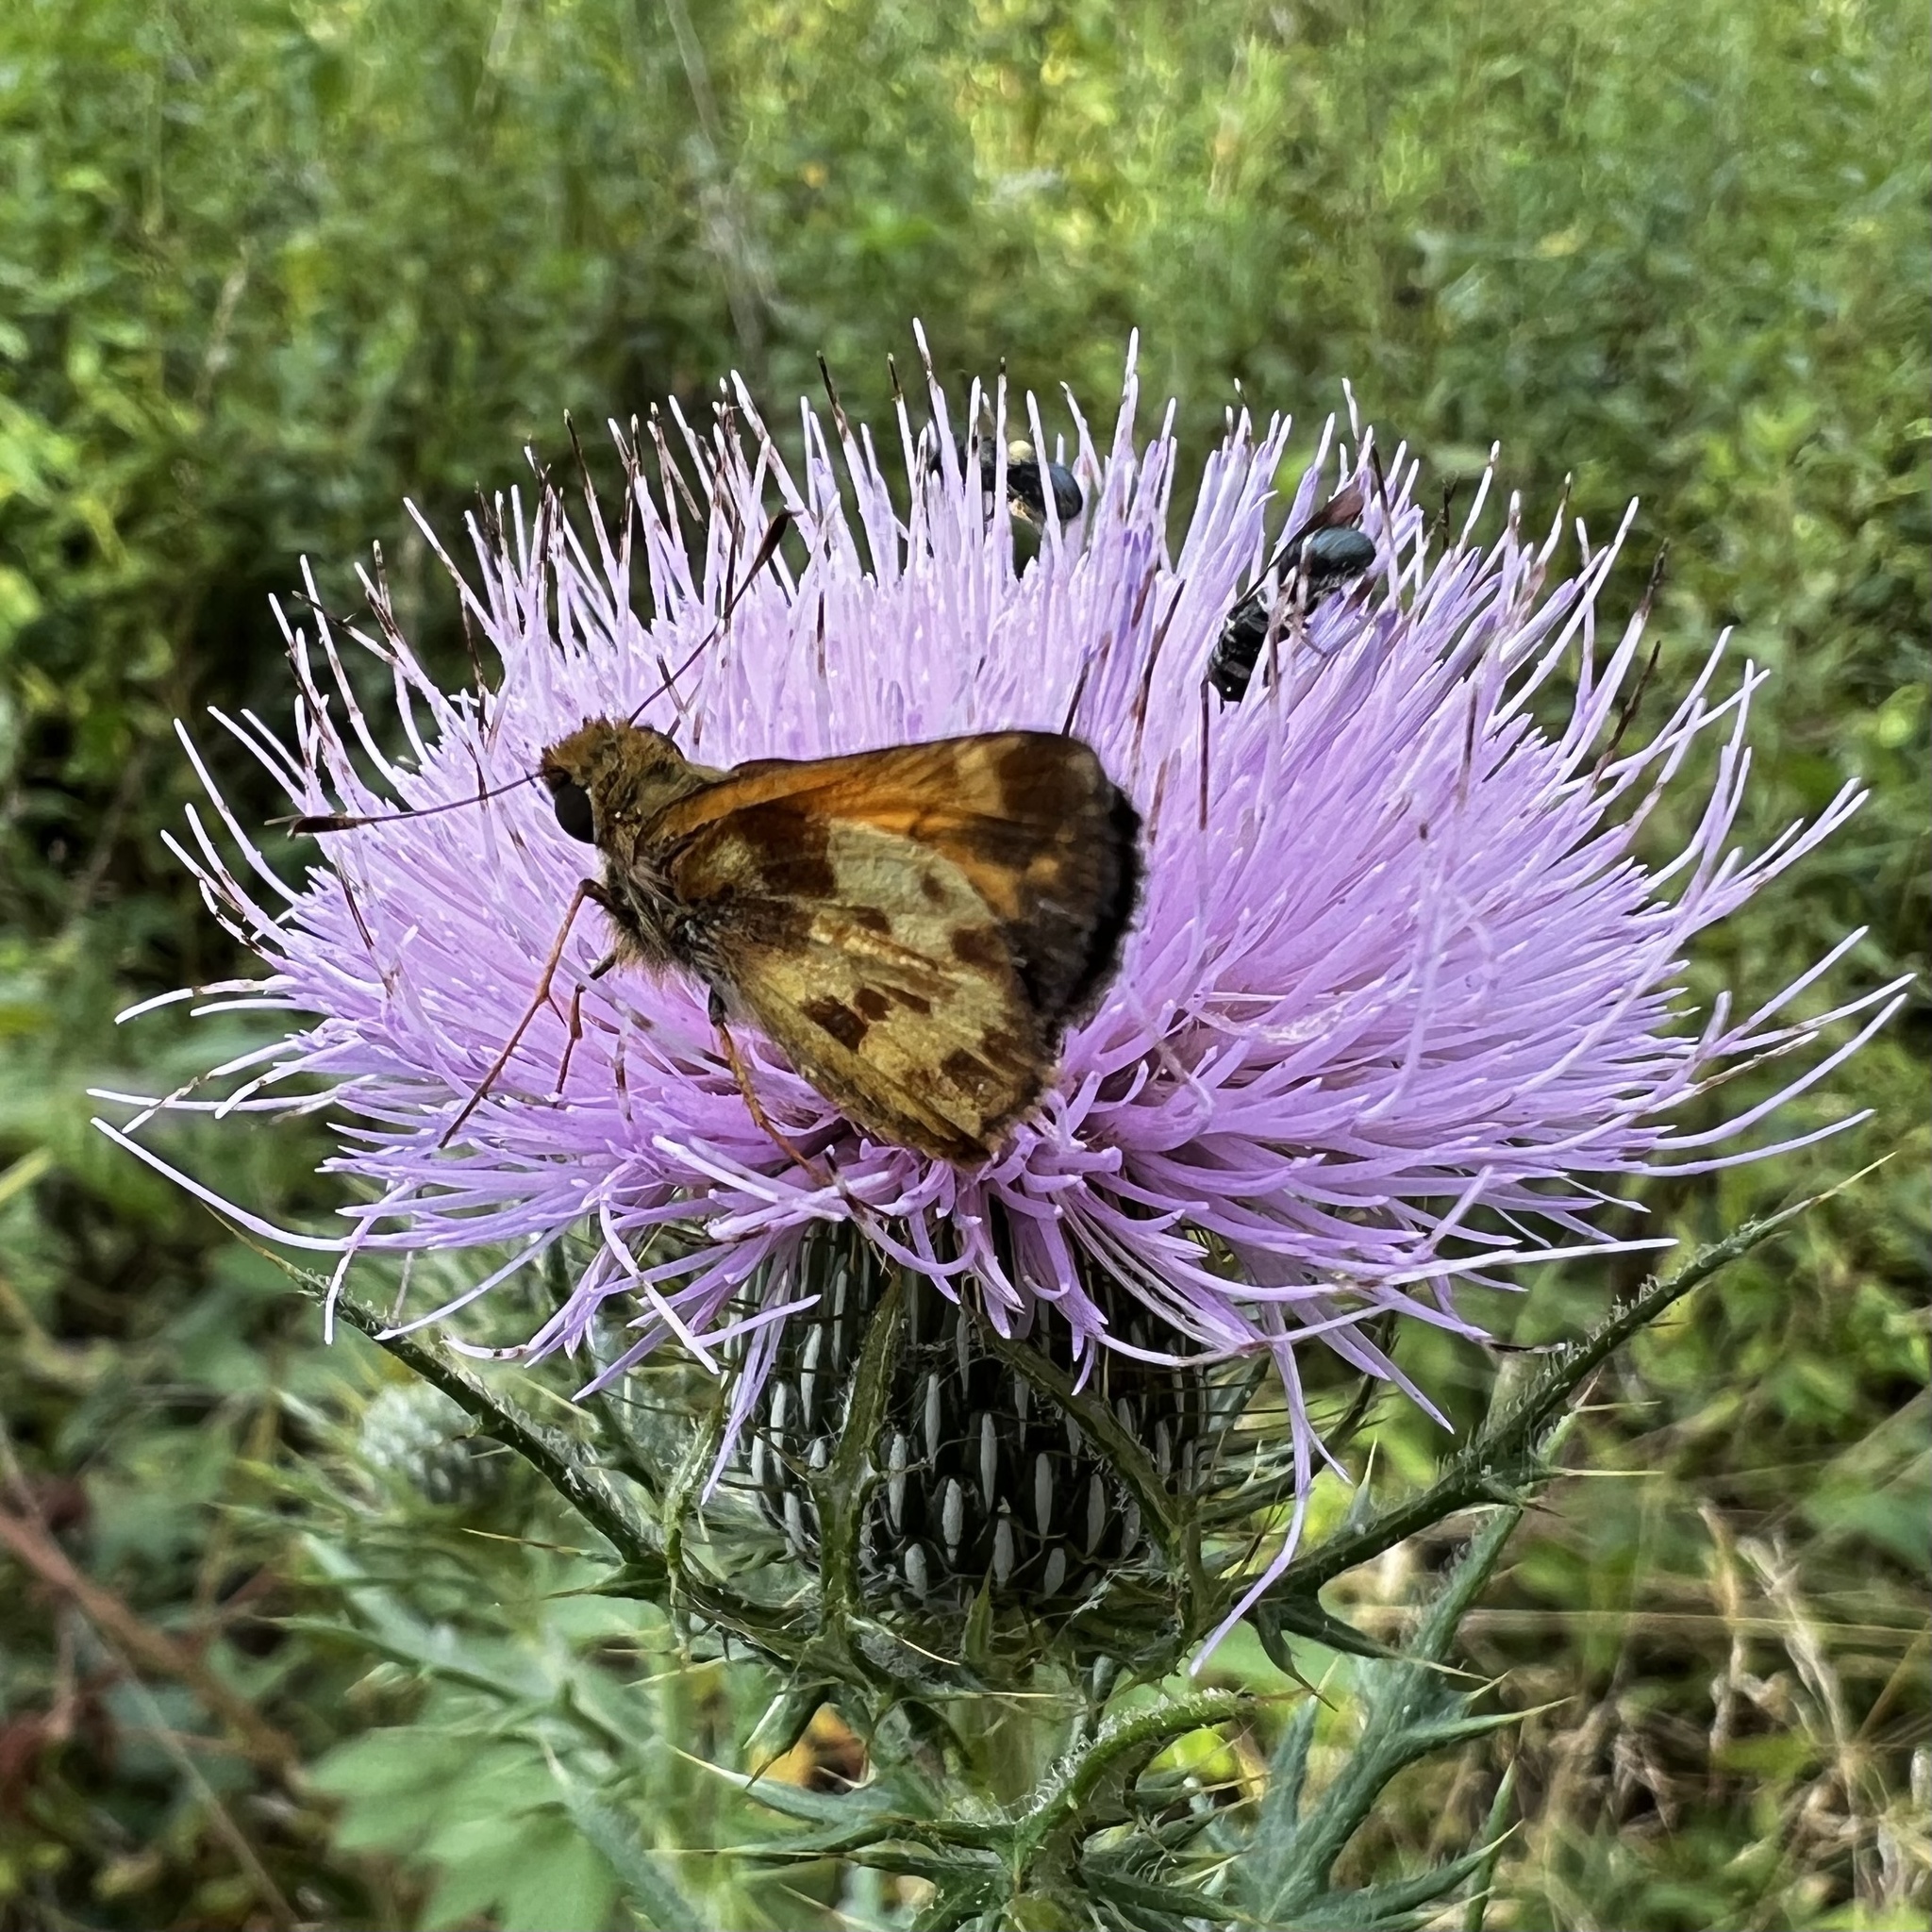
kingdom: Animalia
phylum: Arthropoda
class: Insecta
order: Lepidoptera
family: Hesperiidae
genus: Lon
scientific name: Lon zabulon
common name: Zabulon skipper
